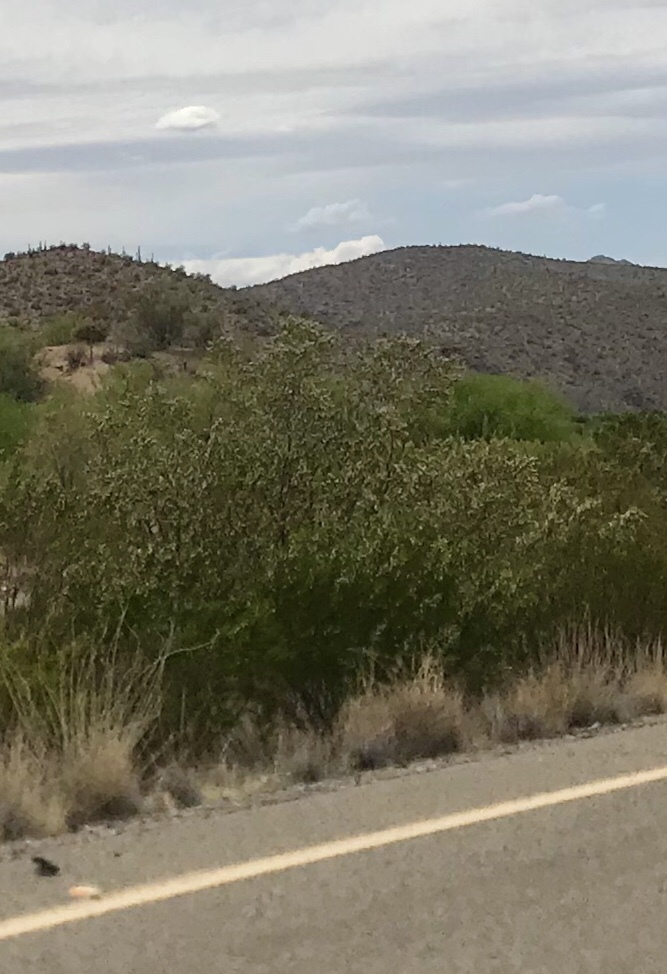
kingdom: Plantae
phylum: Tracheophyta
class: Magnoliopsida
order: Zygophyllales
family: Zygophyllaceae
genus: Larrea
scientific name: Larrea tridentata
